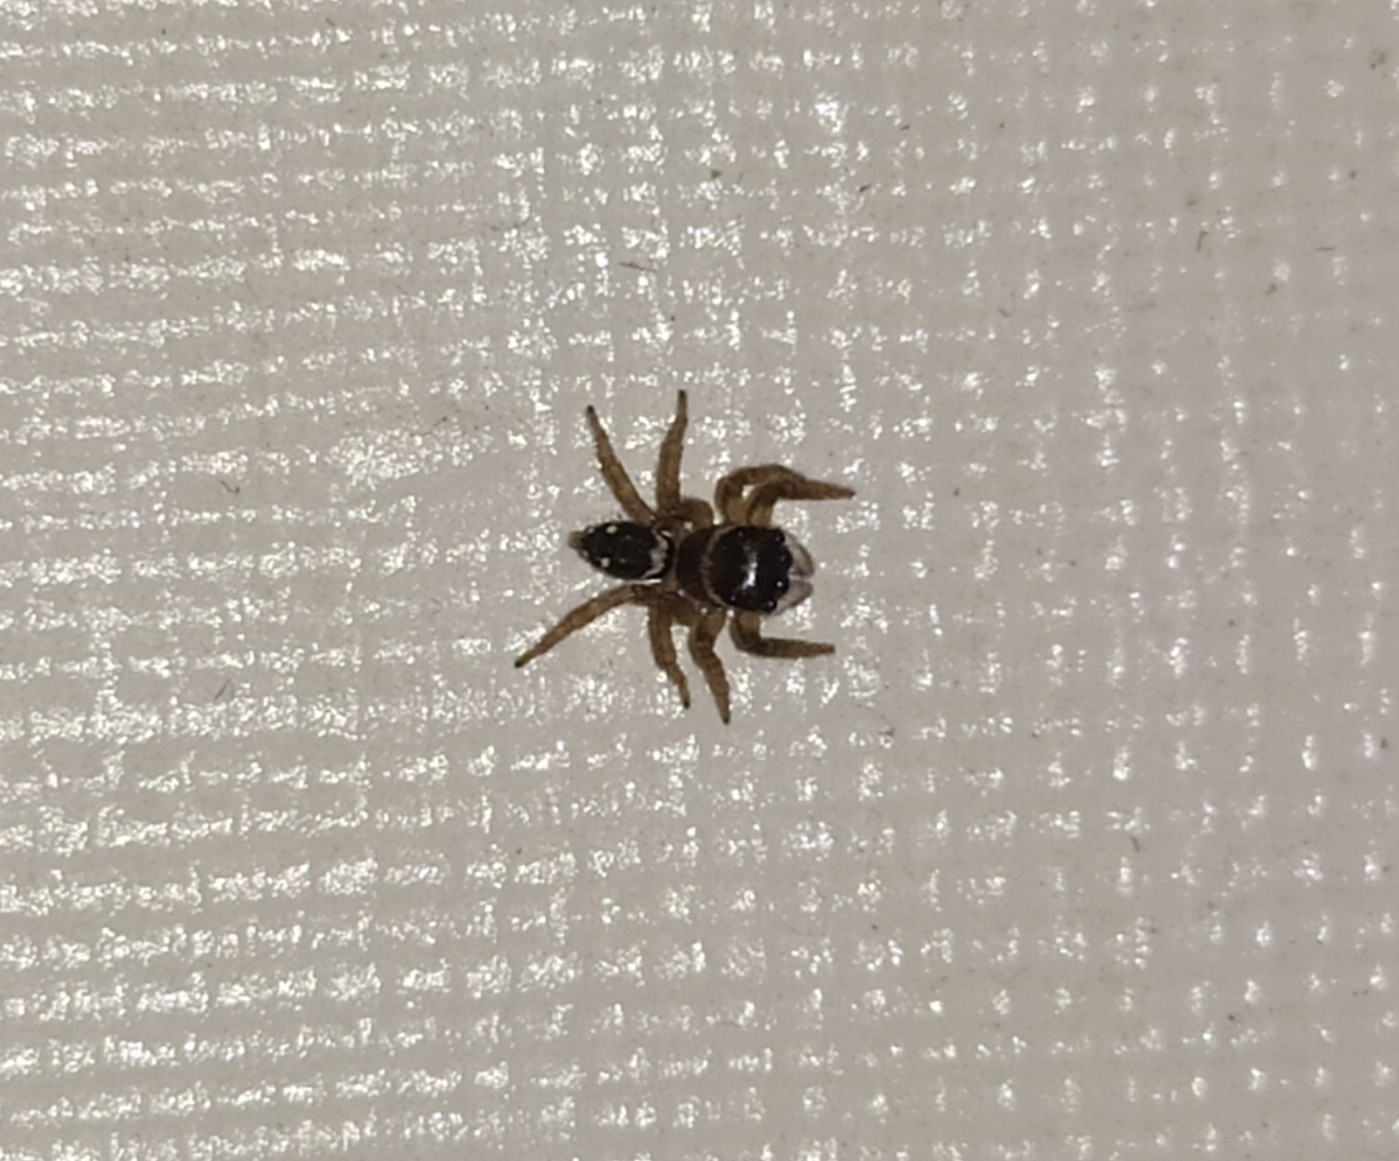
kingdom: Animalia
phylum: Arthropoda
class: Arachnida
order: Araneae
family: Salticidae
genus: Hasarius
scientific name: Hasarius adansoni
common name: Jumping spider
